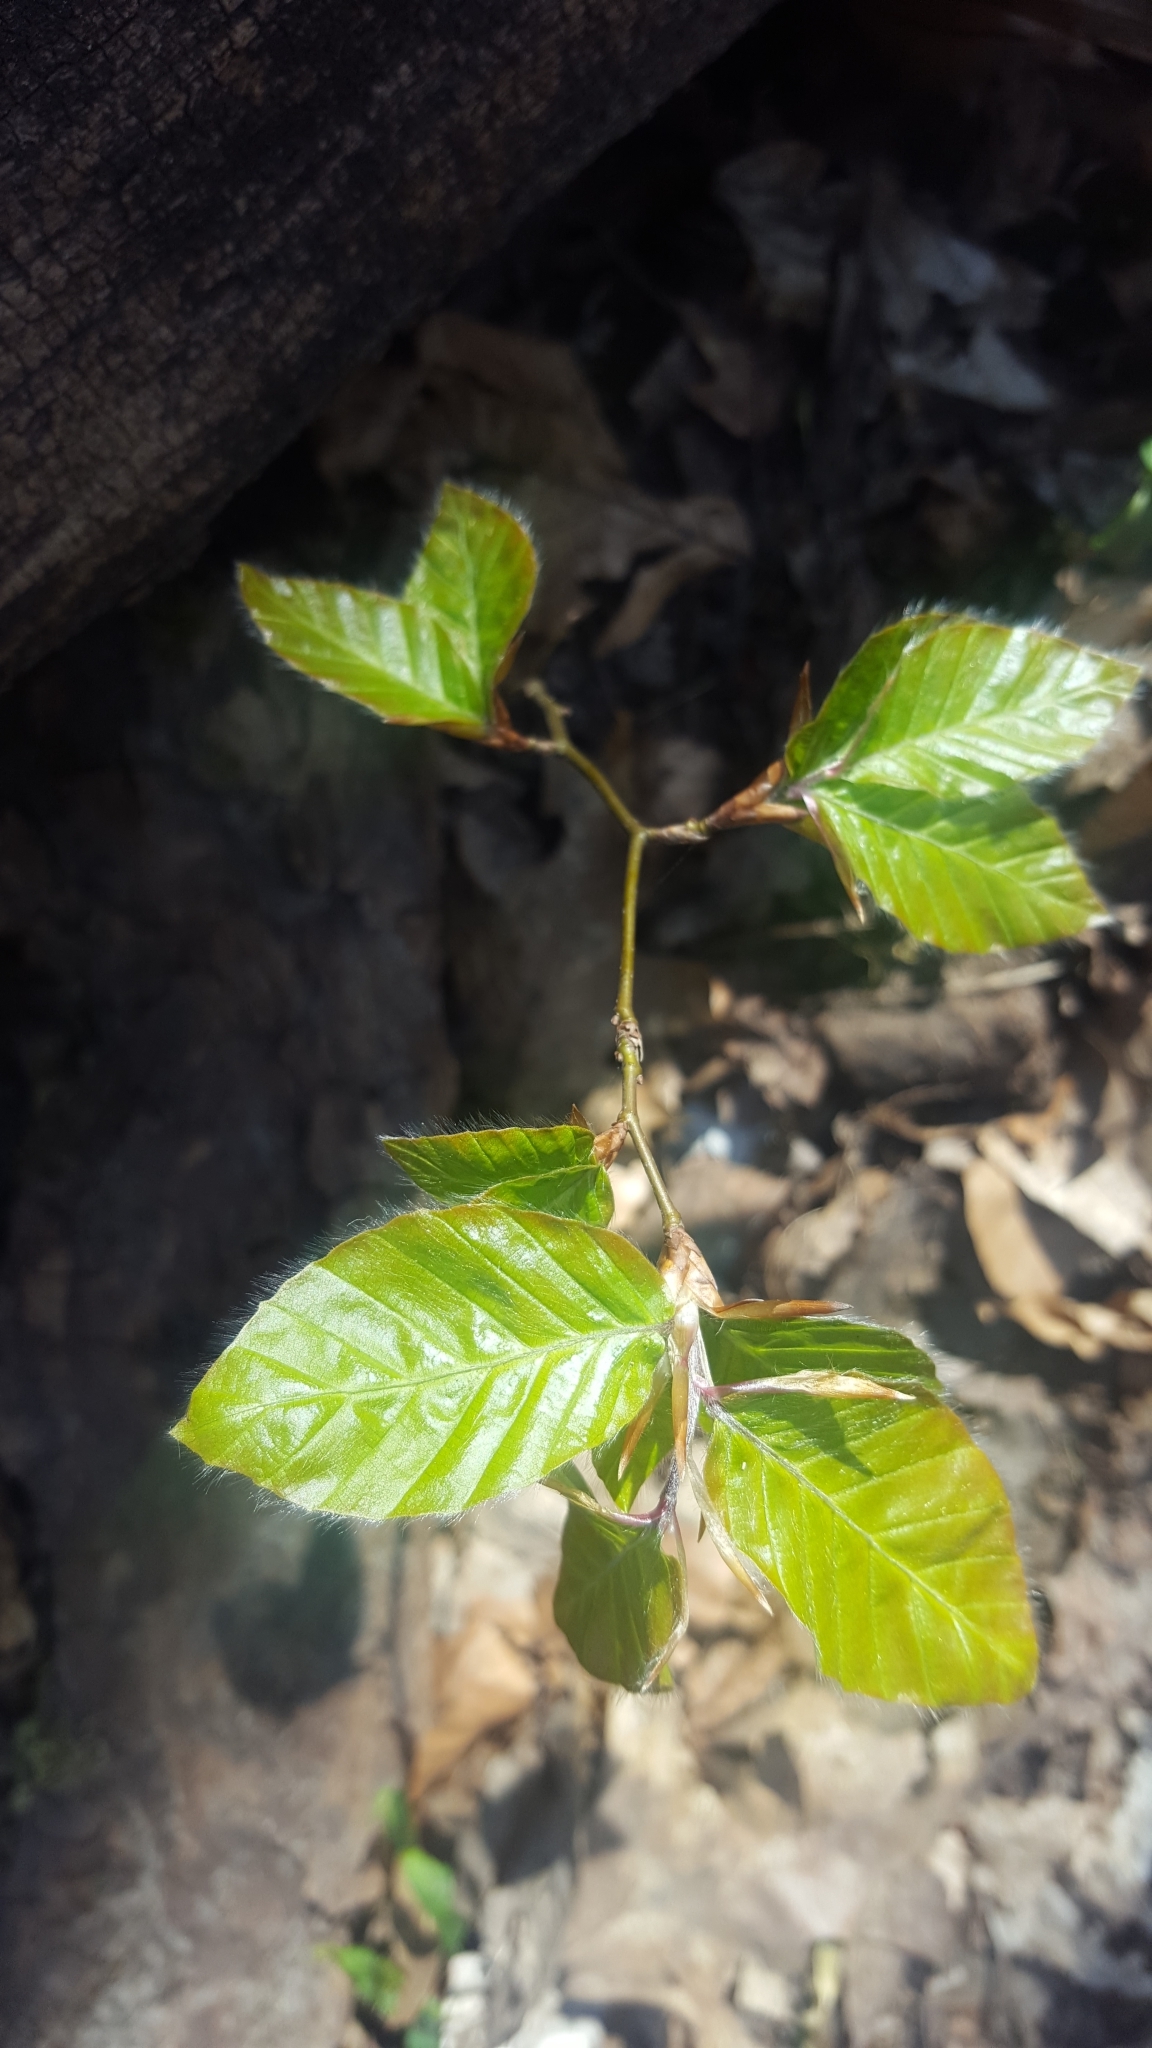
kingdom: Plantae
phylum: Tracheophyta
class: Magnoliopsida
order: Fagales
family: Fagaceae
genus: Fagus
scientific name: Fagus sylvatica
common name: Beech
